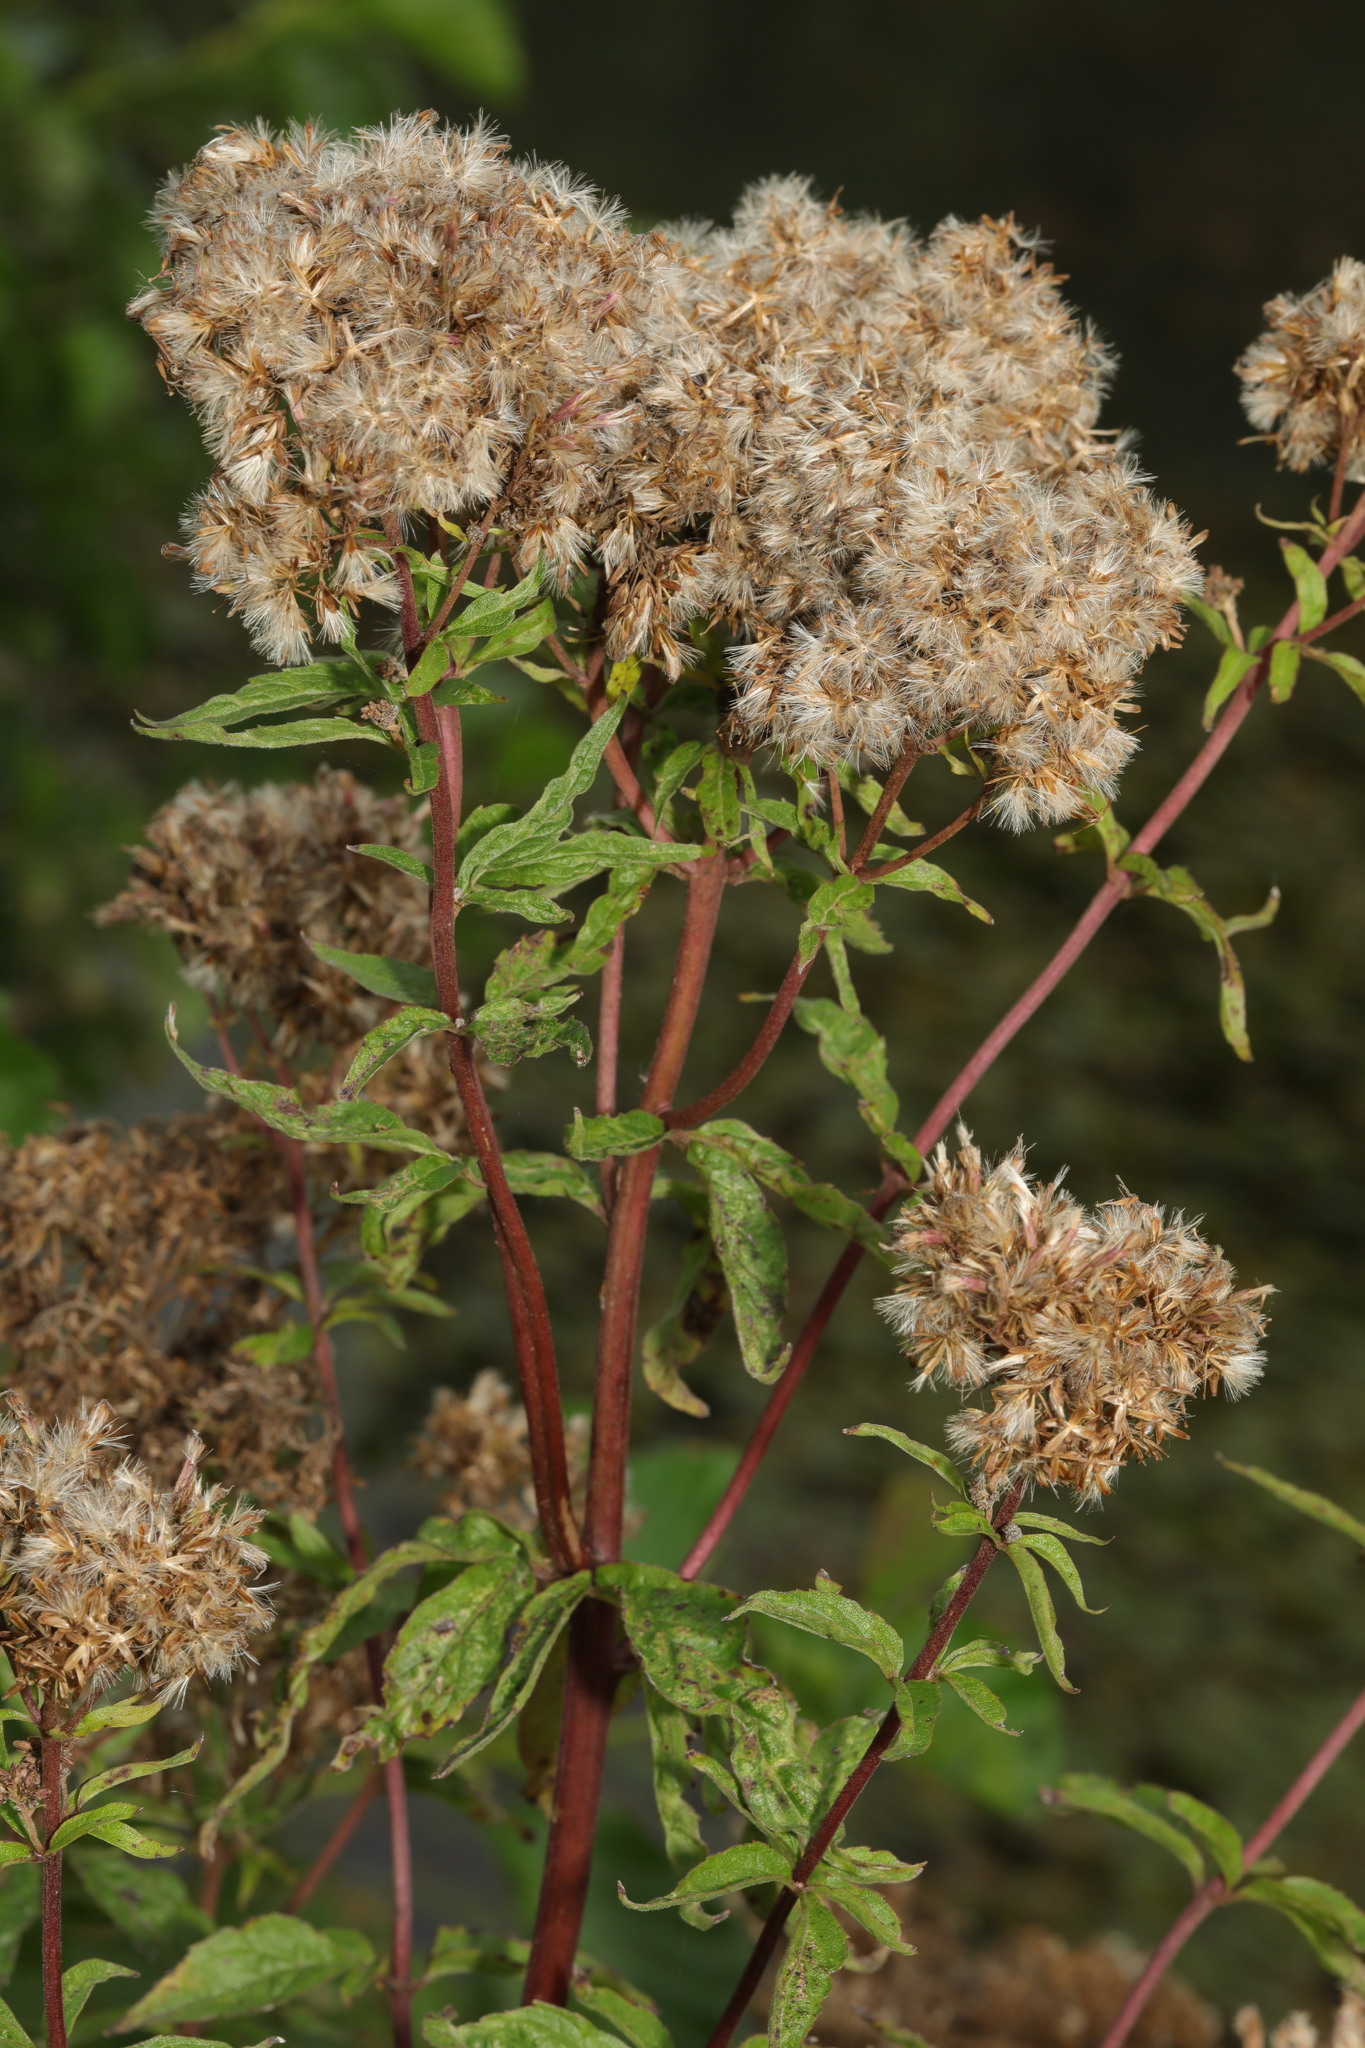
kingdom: Plantae
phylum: Tracheophyta
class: Magnoliopsida
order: Asterales
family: Asteraceae
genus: Eupatorium
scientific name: Eupatorium cannabinum
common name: Hemp-agrimony
